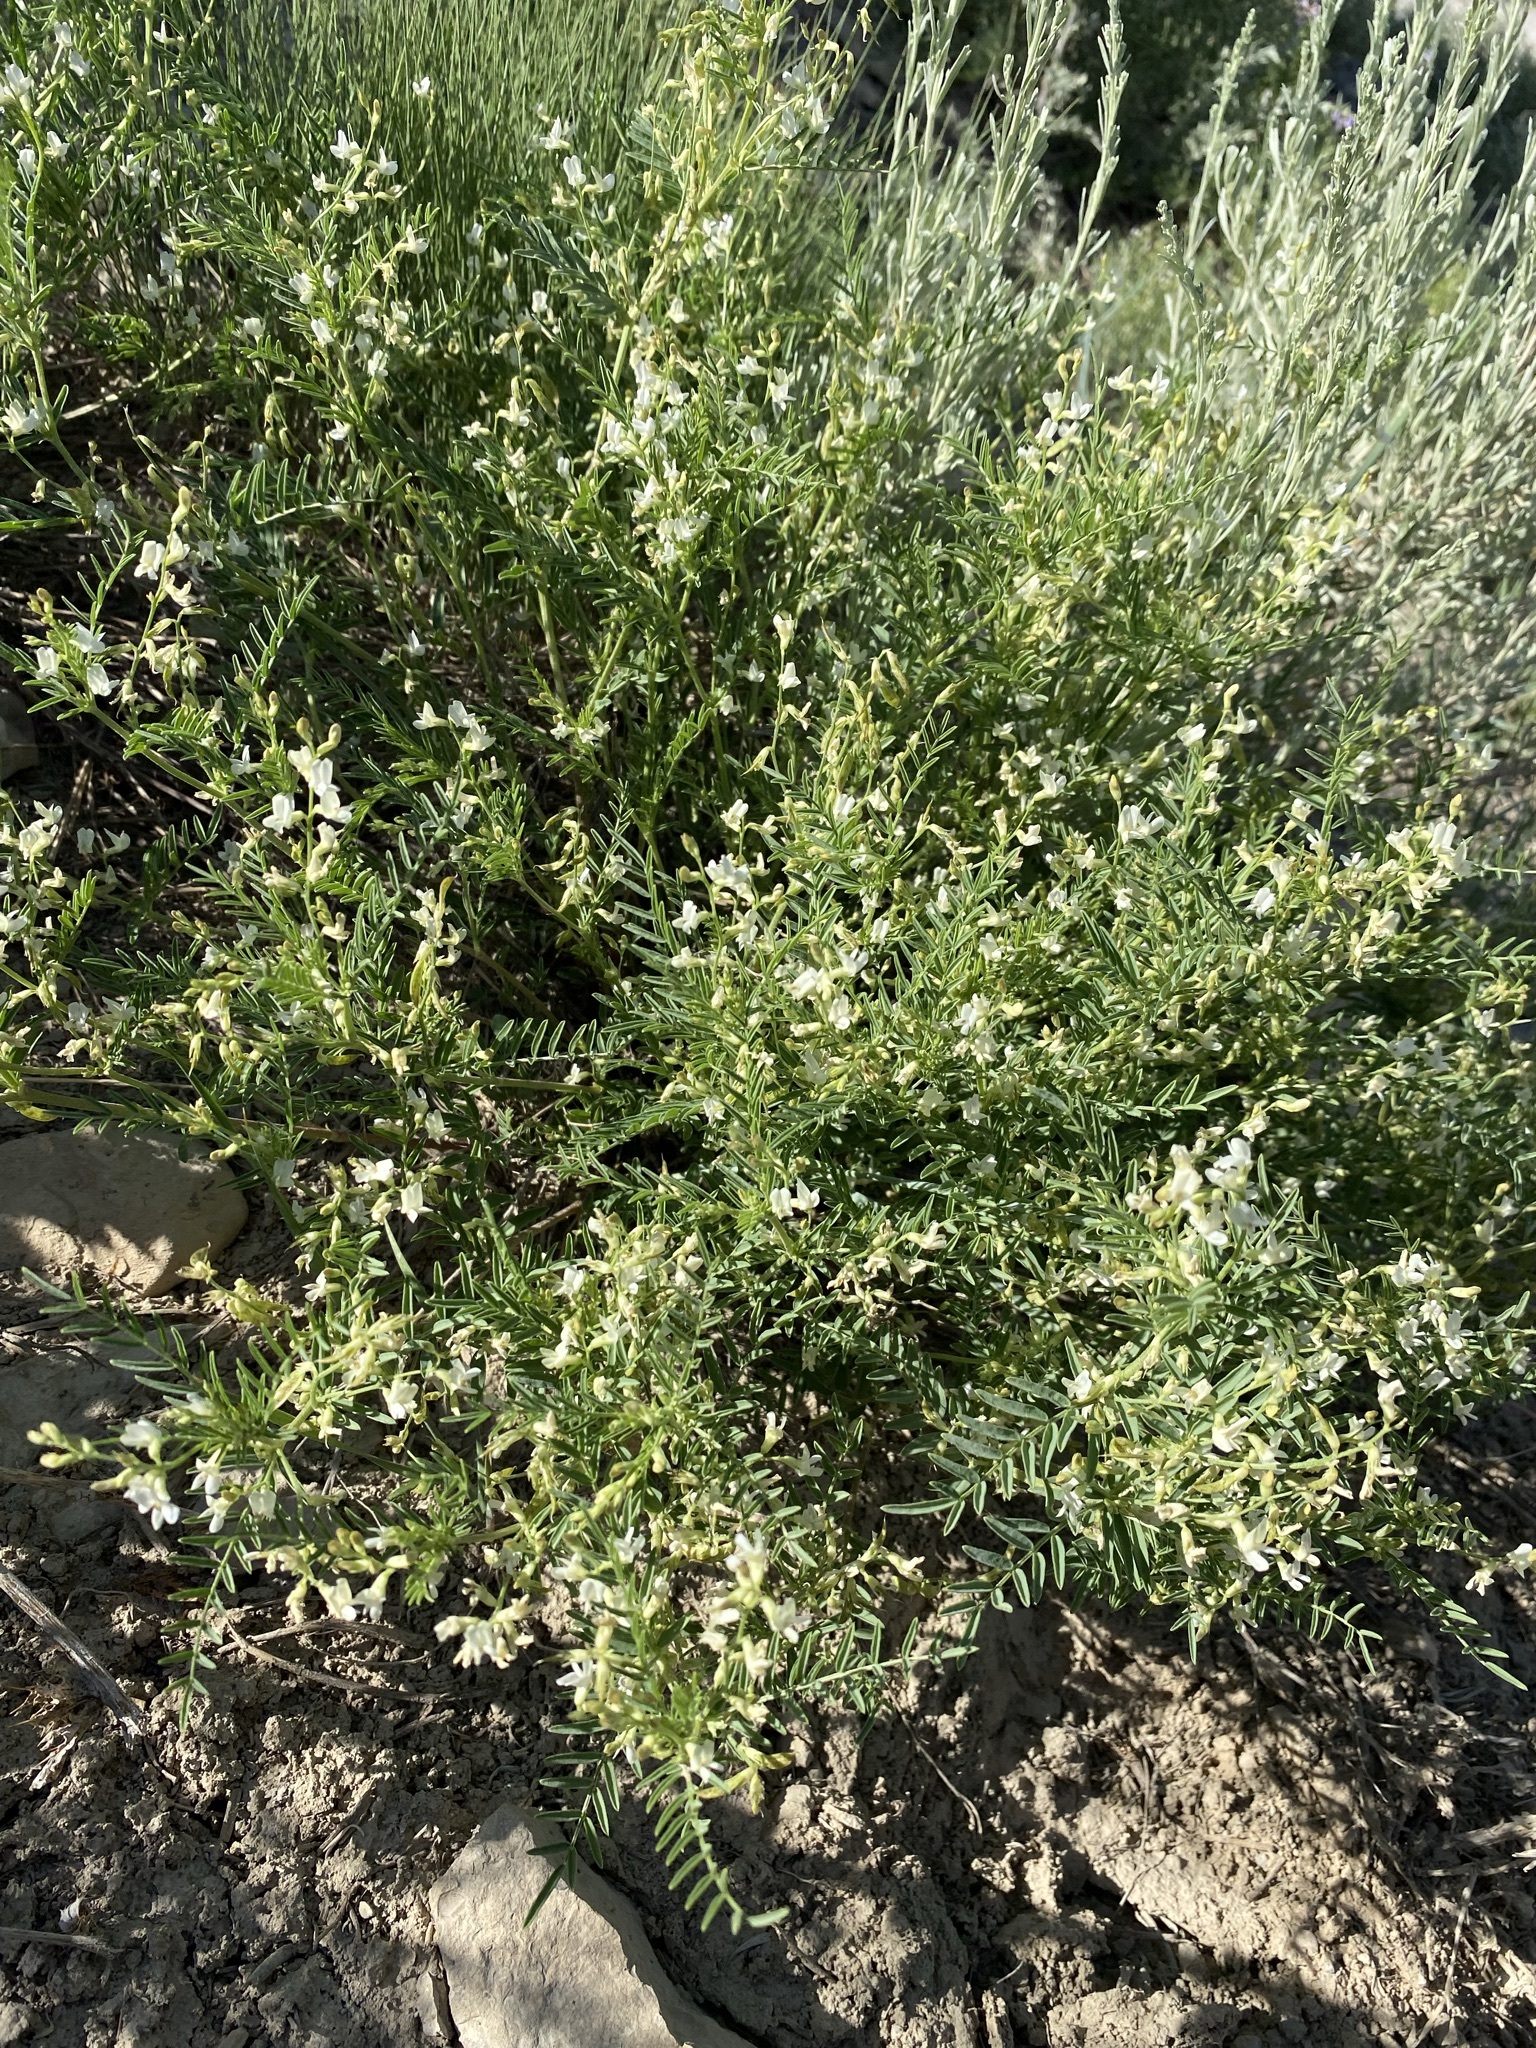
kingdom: Plantae
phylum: Tracheophyta
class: Magnoliopsida
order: Fabales
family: Fabaceae
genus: Astragalus
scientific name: Astragalus tenellus
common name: Pulse milk-vetch
